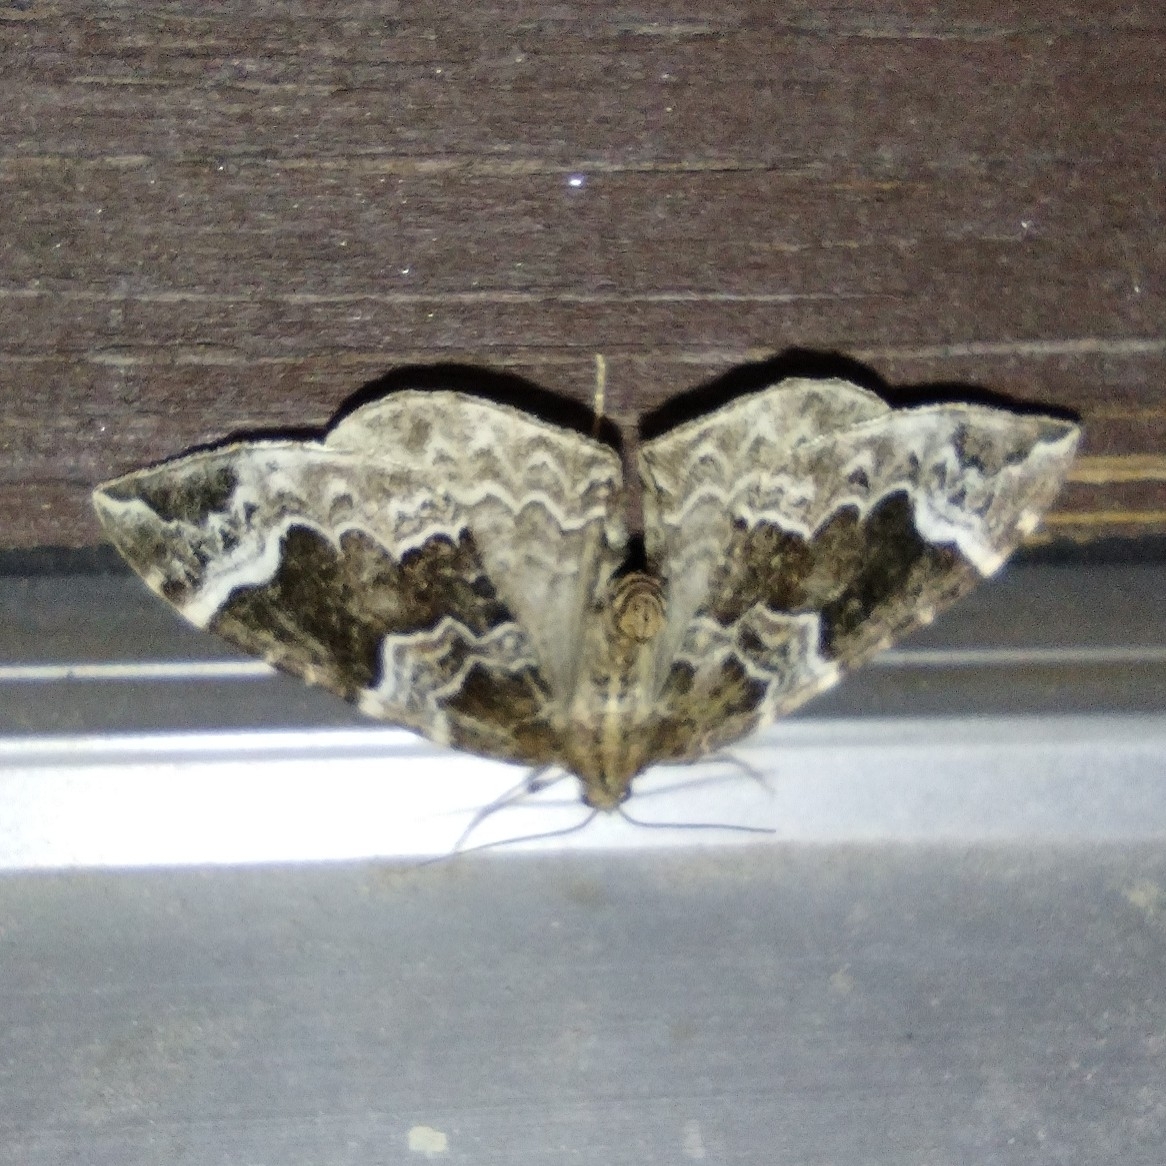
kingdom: Animalia
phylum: Arthropoda
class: Insecta
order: Lepidoptera
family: Geometridae
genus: Eulithis
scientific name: Eulithis prunata
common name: Phoenix
